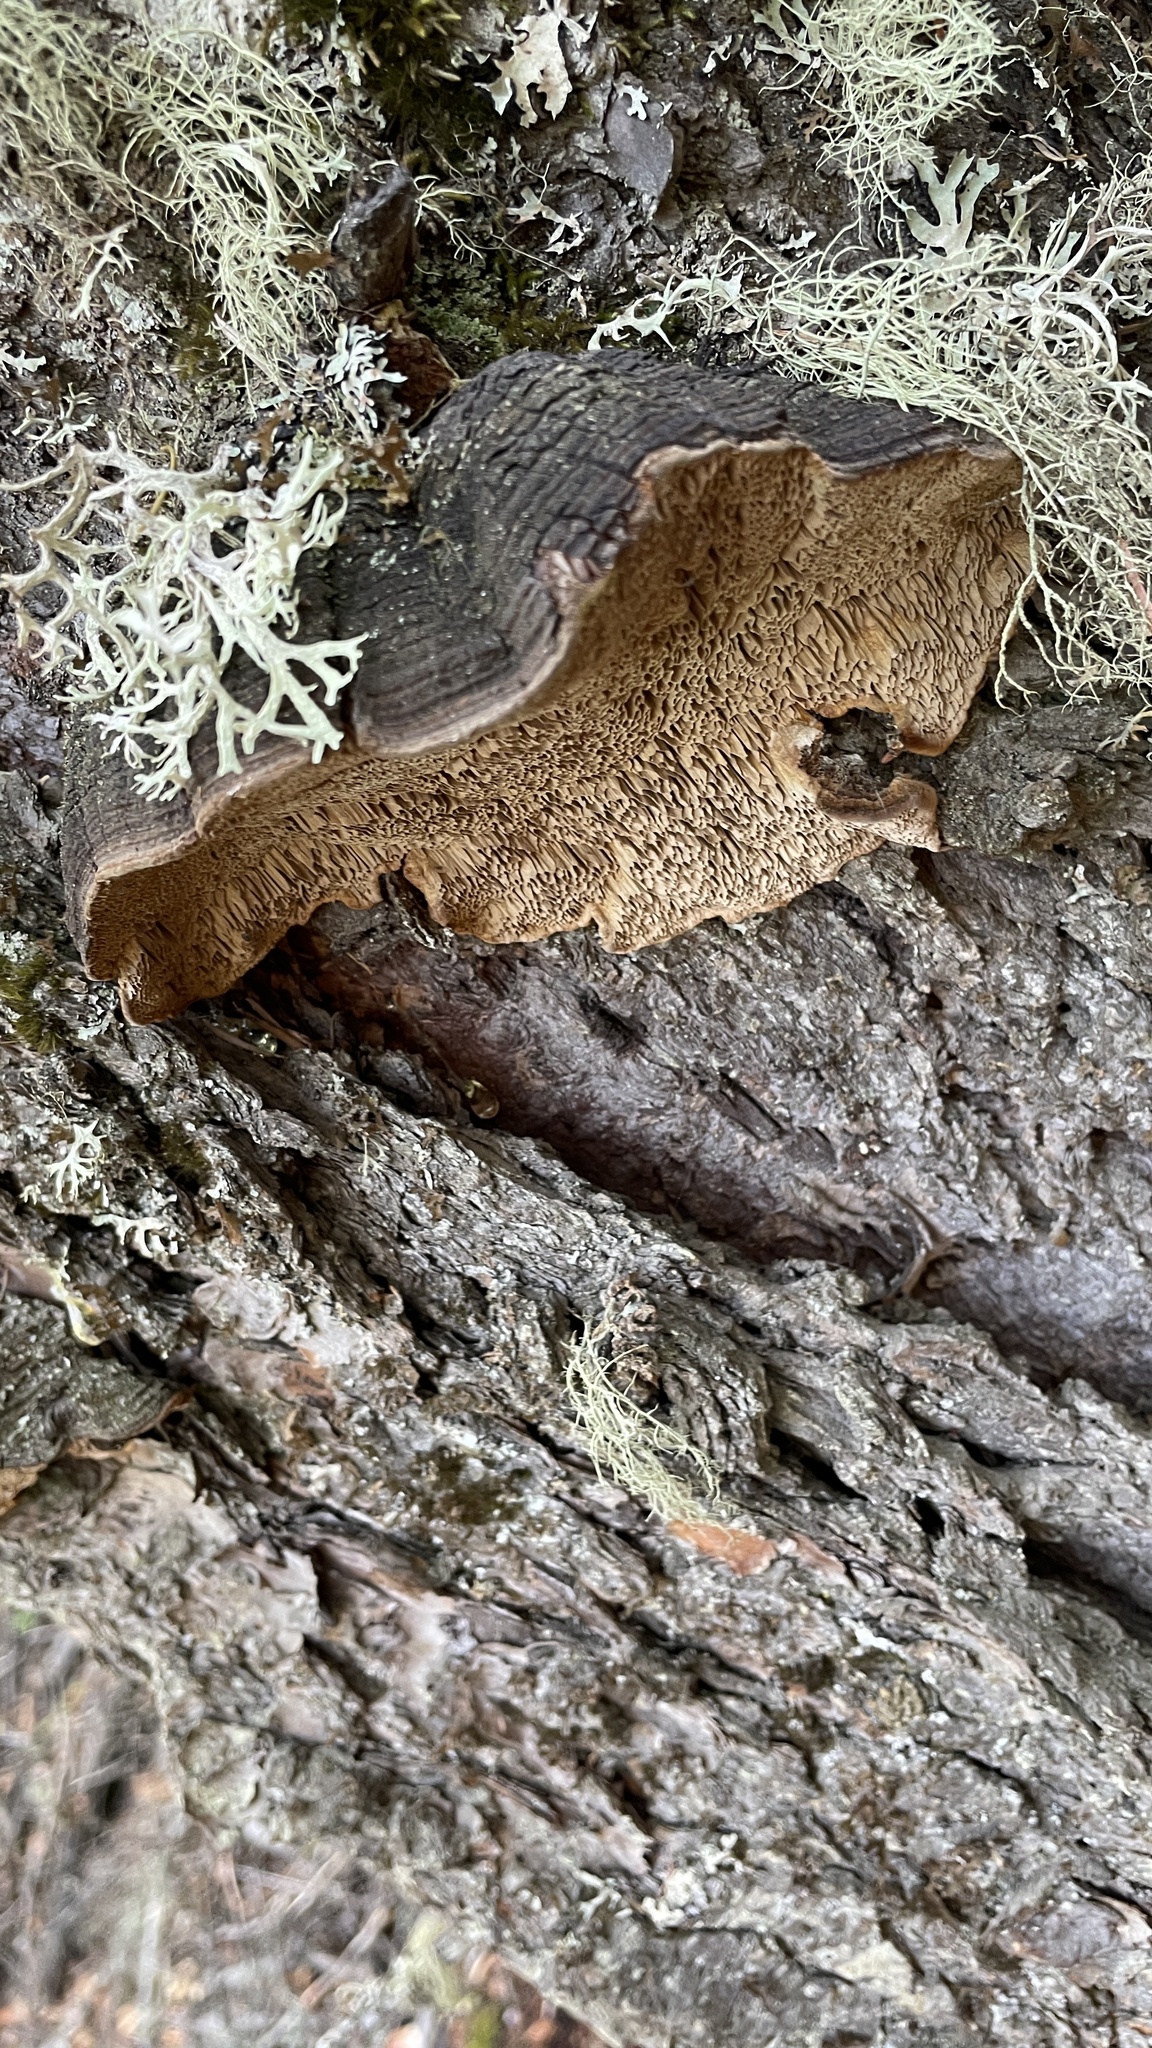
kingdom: Fungi
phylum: Basidiomycota
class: Agaricomycetes
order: Hymenochaetales
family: Hymenochaetaceae
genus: Porodaedalea
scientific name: Porodaedalea pini
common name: Pine bracket
